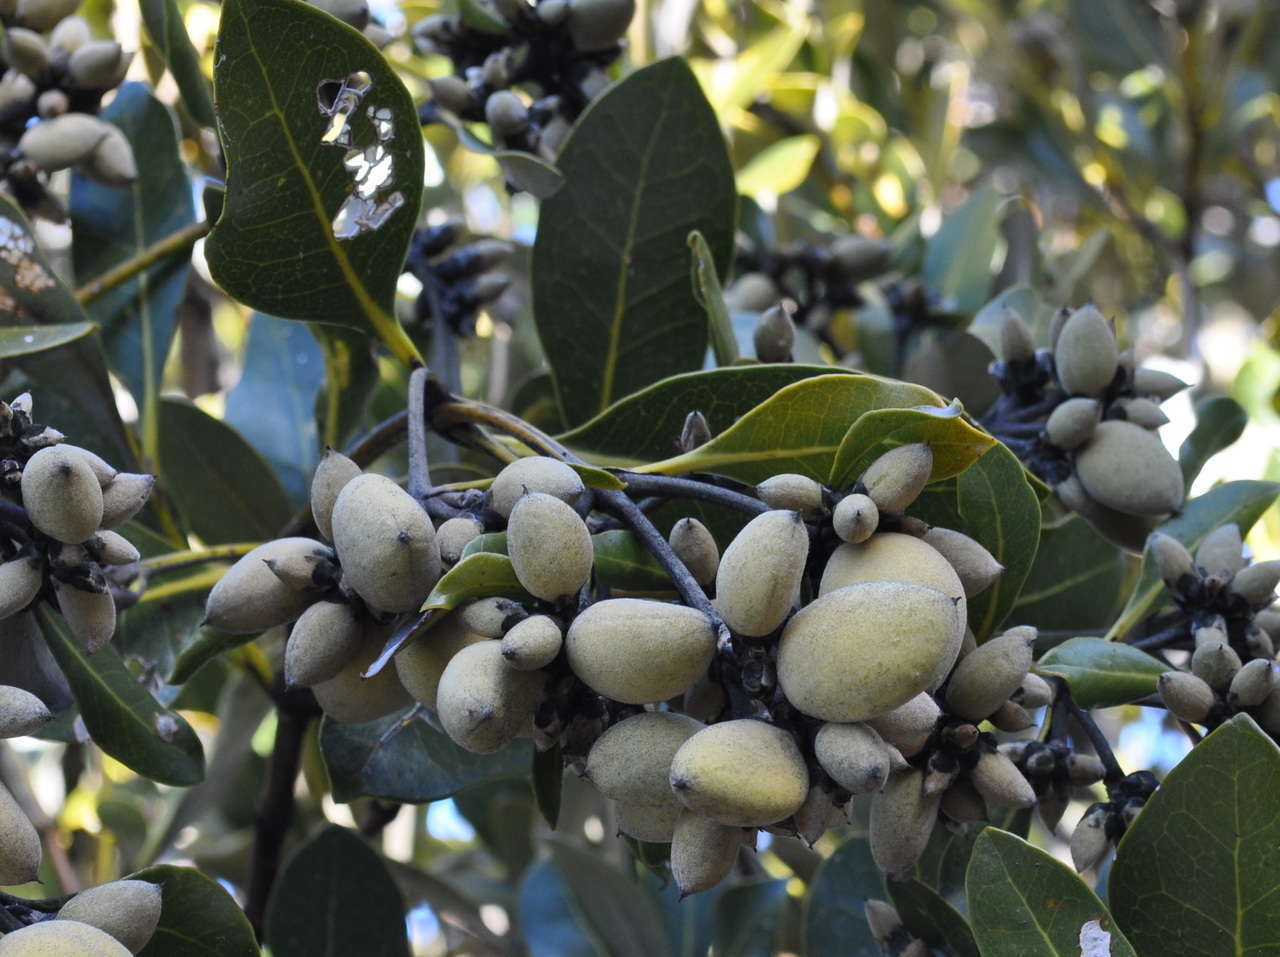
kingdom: Plantae
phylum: Tracheophyta
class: Magnoliopsida
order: Lamiales
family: Acanthaceae
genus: Avicennia
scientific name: Avicennia marina
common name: Gray mangrove
